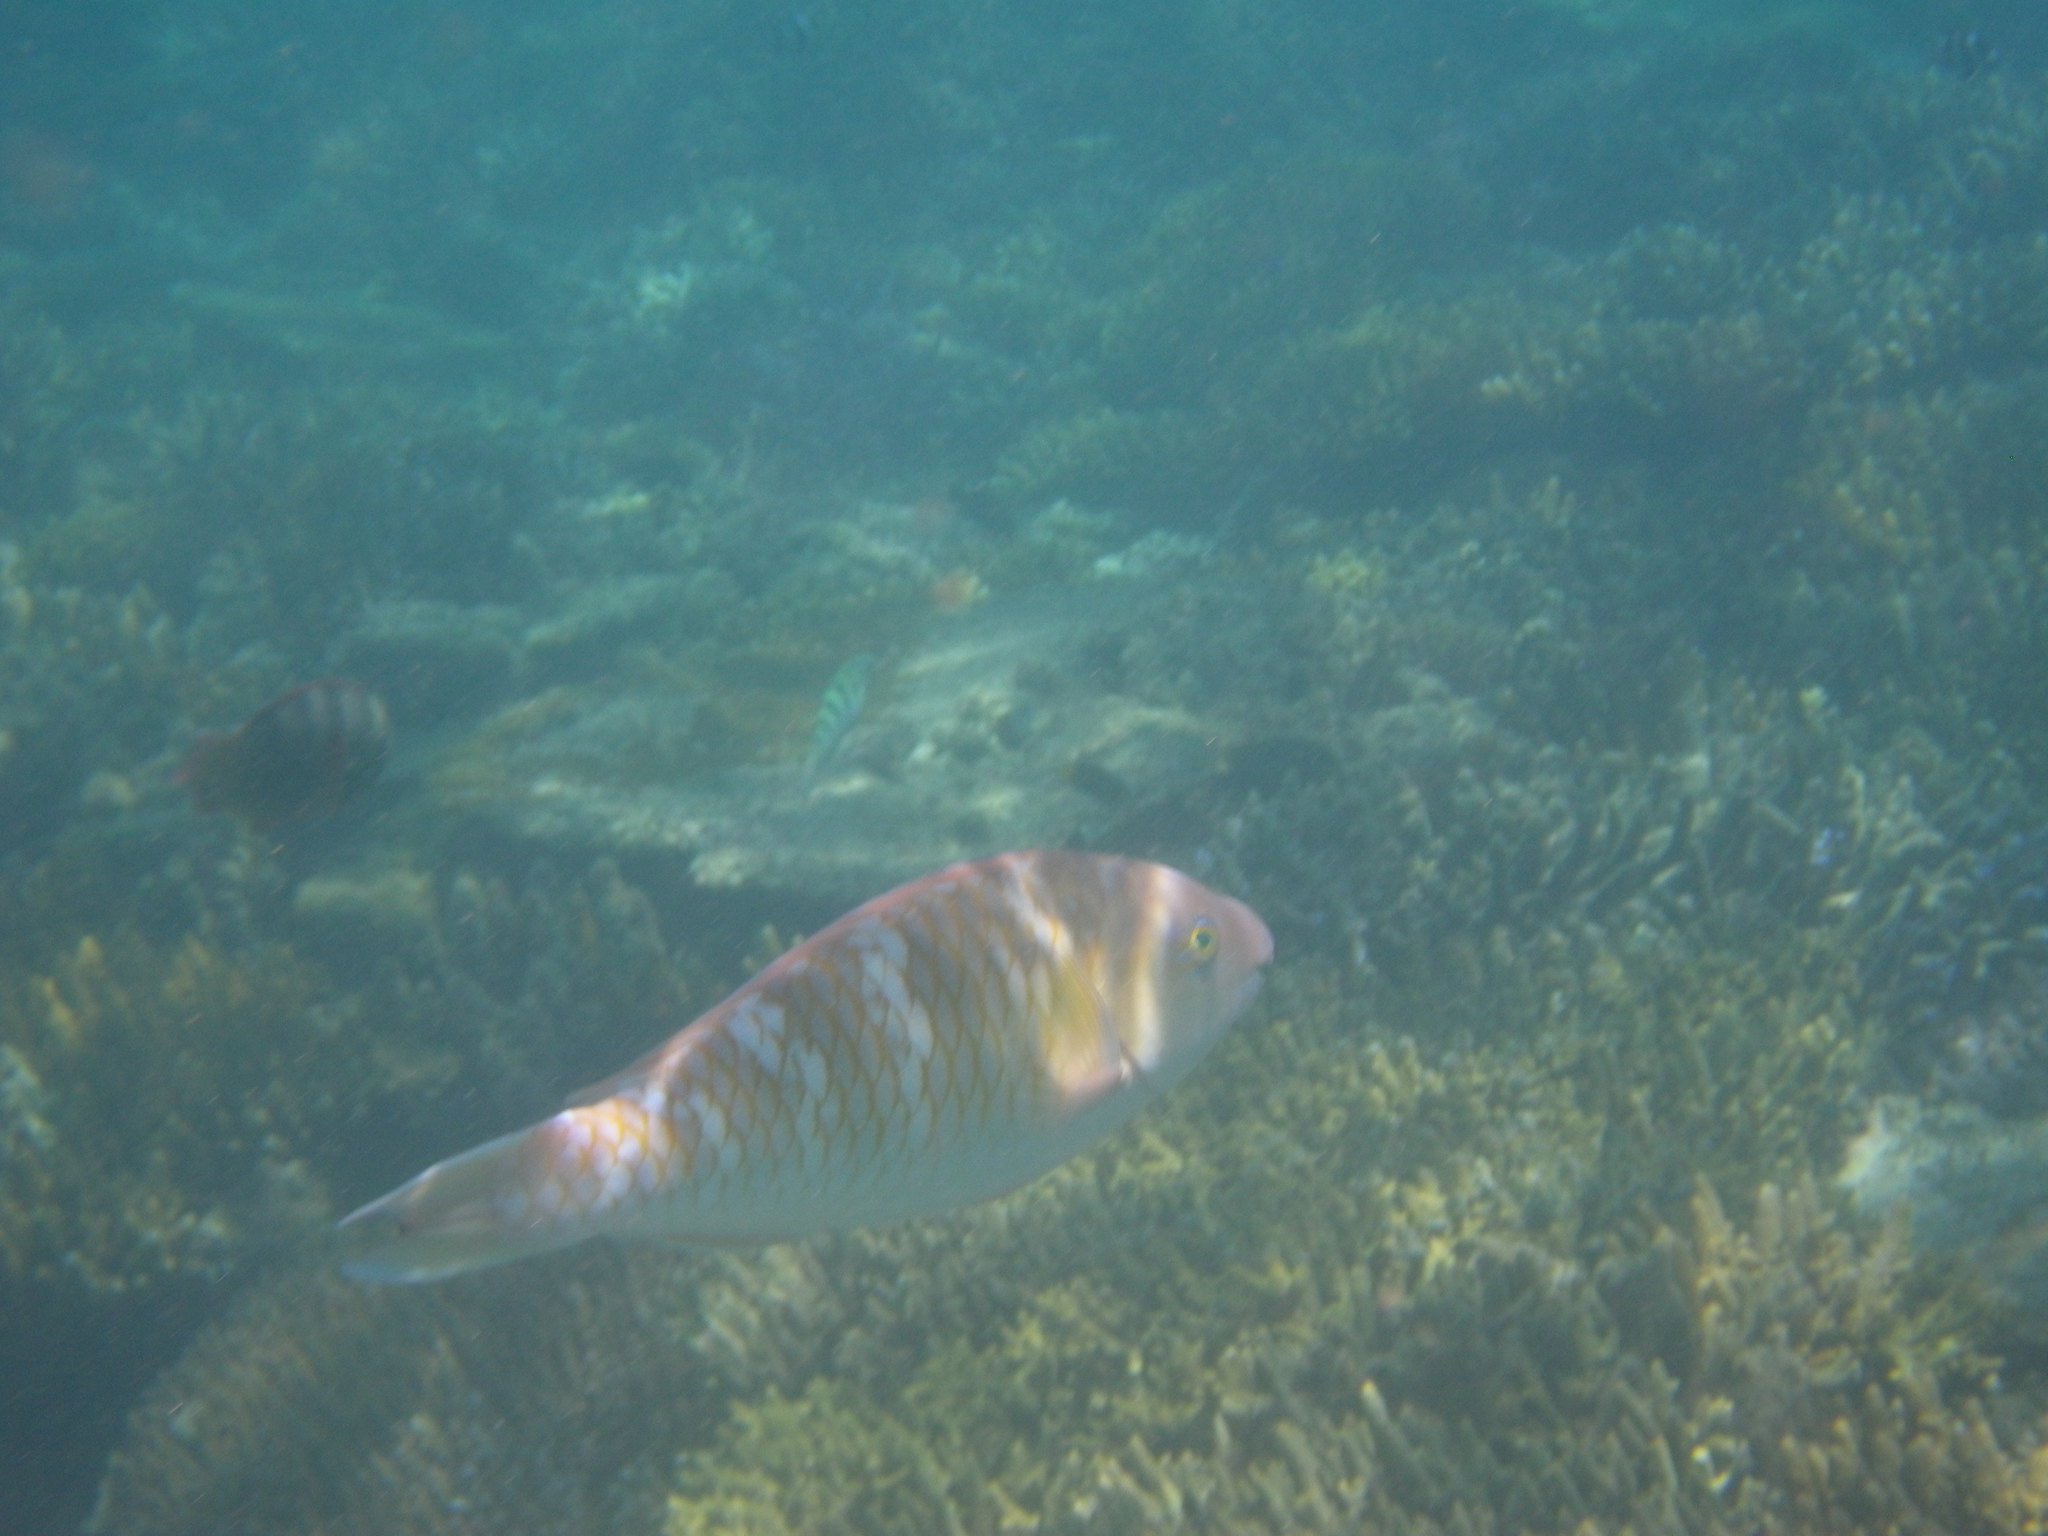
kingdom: Animalia
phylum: Chordata
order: Perciformes
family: Scaridae
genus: Scarus
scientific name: Scarus ghobban
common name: Blue-barred parrotfish
